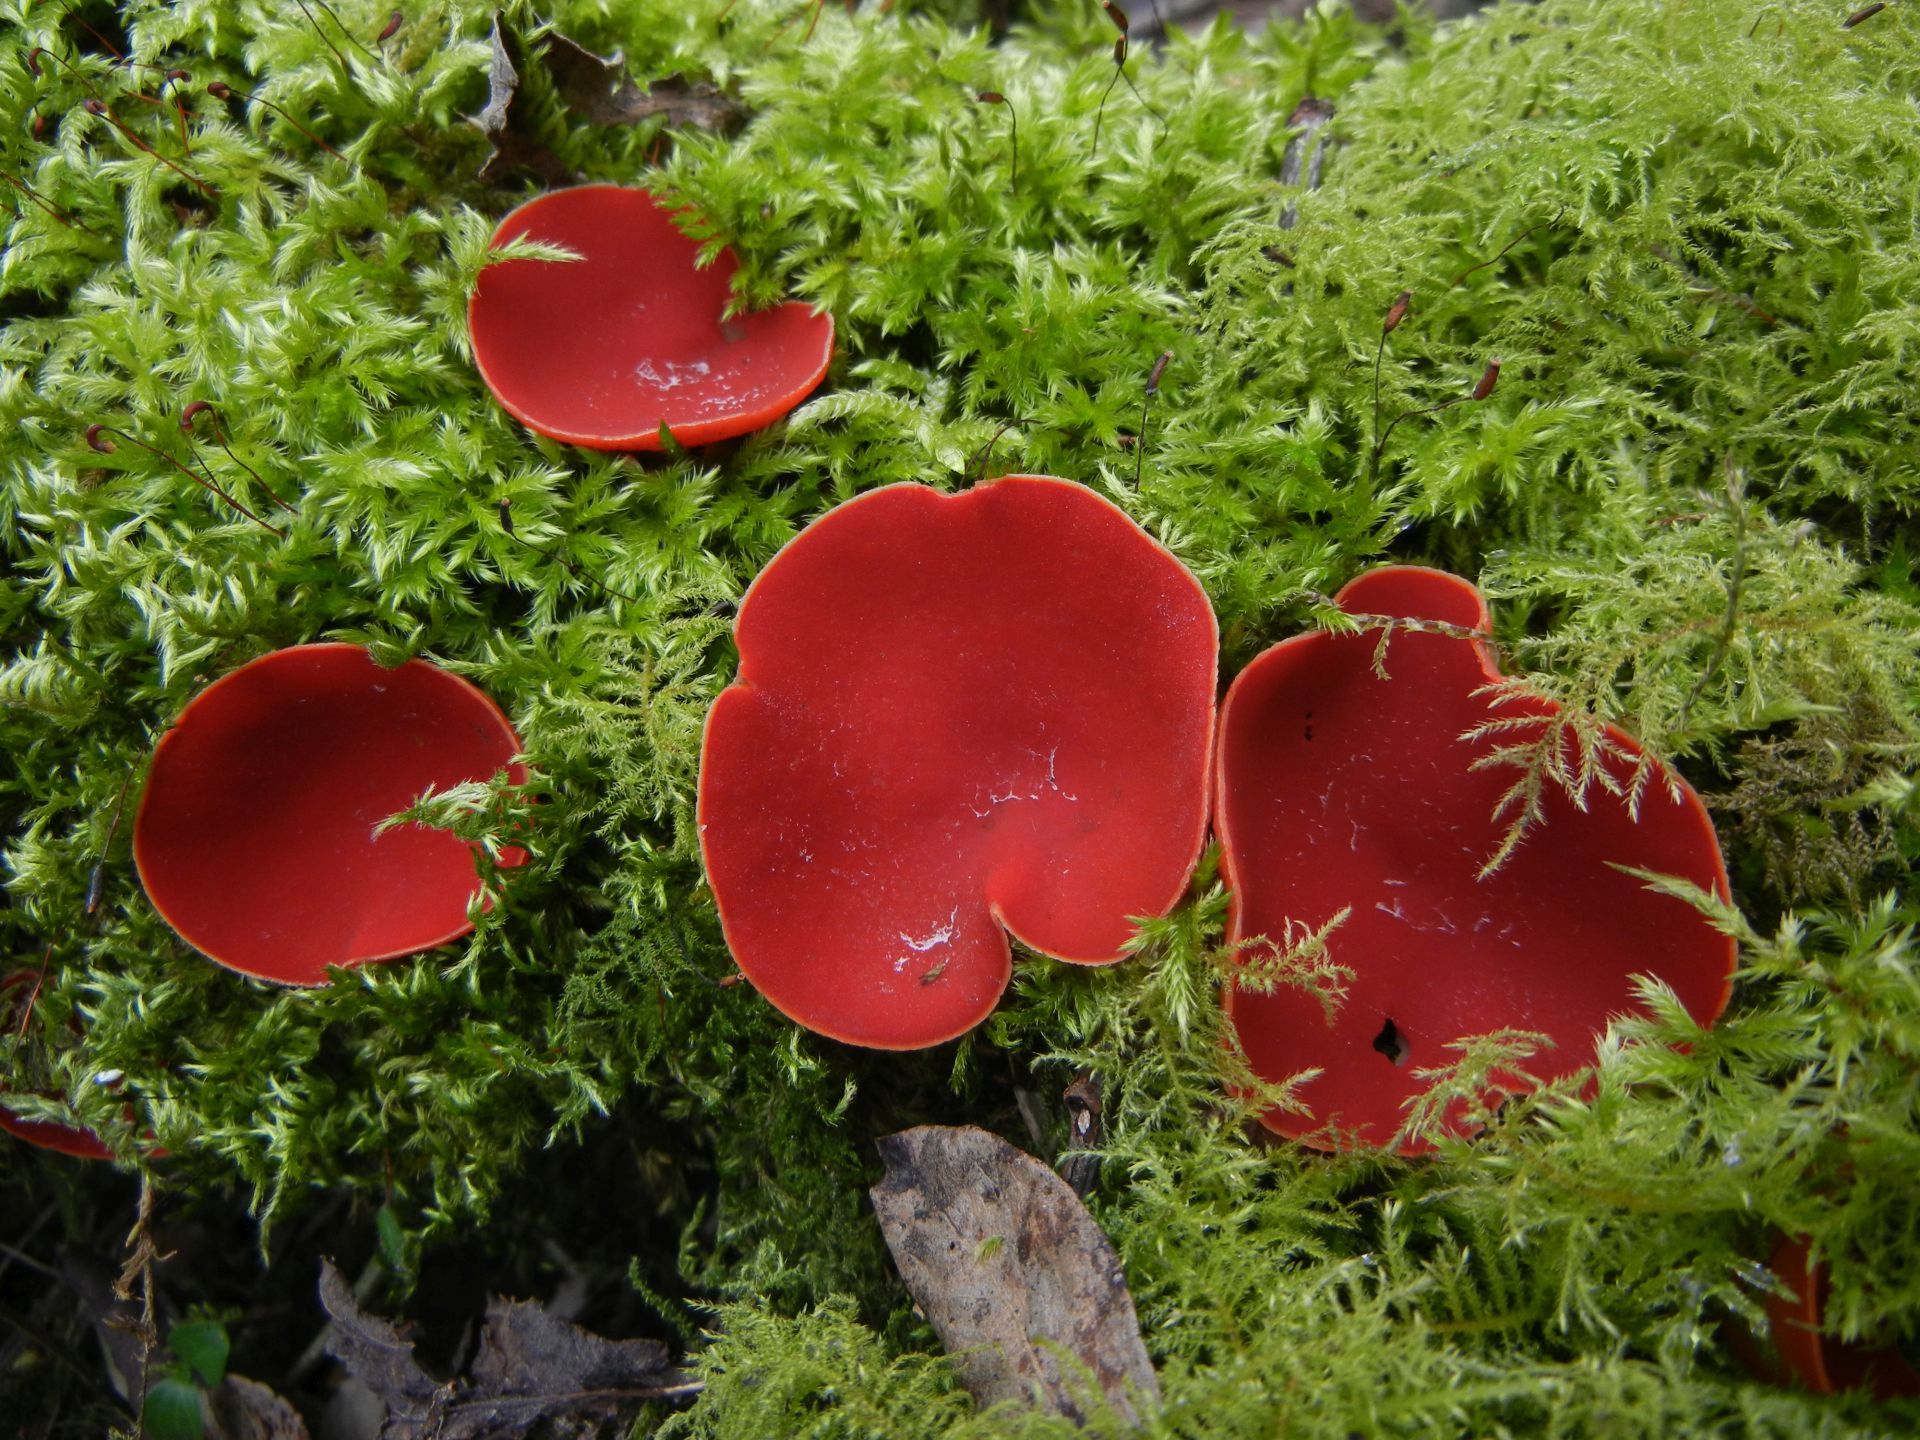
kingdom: Fungi
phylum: Ascomycota
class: Pezizomycetes
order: Pezizales
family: Sarcoscyphaceae
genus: Sarcoscypha
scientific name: Sarcoscypha
